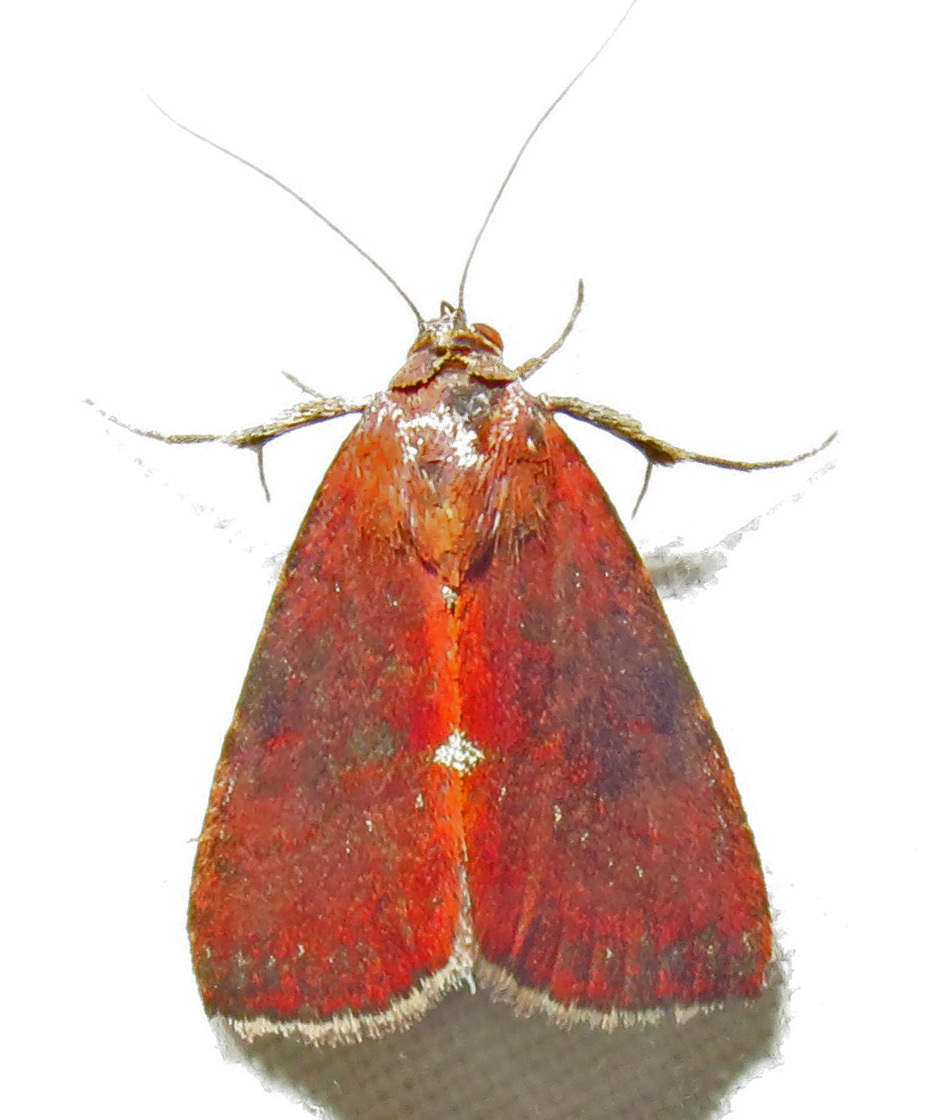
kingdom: Animalia
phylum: Arthropoda
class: Insecta
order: Lepidoptera
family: Noctuidae
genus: Galgula
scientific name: Galgula partita
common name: Wedgeling
